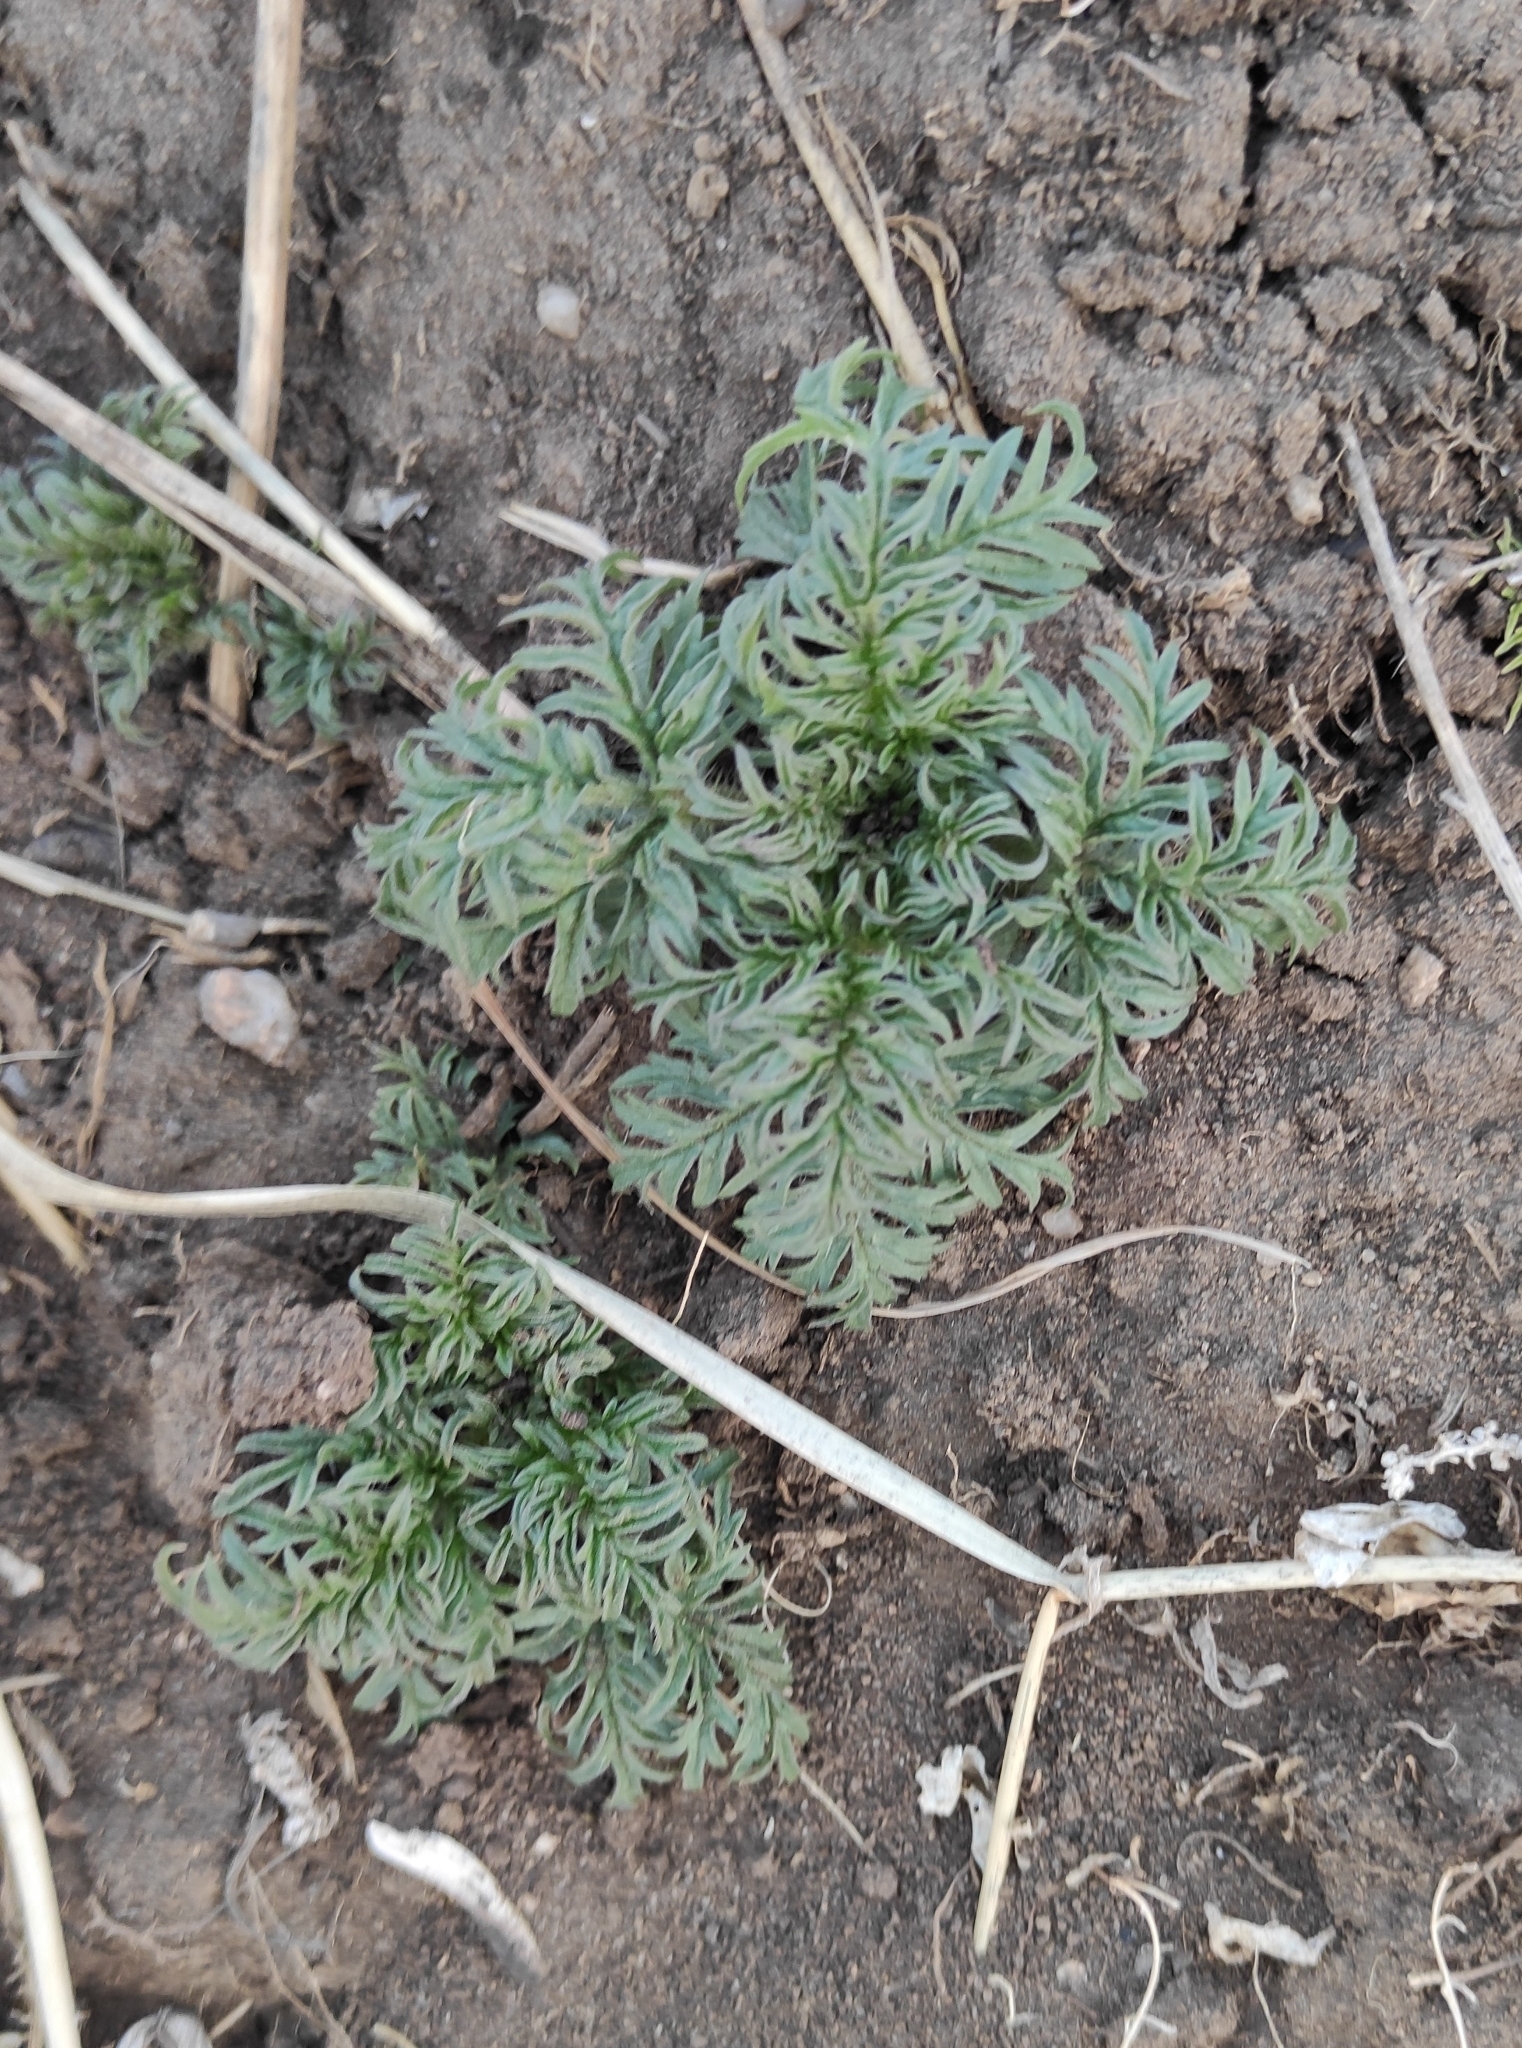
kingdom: Plantae
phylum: Tracheophyta
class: Magnoliopsida
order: Rosales
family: Urticaceae
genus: Urtica
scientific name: Urtica cannabina
